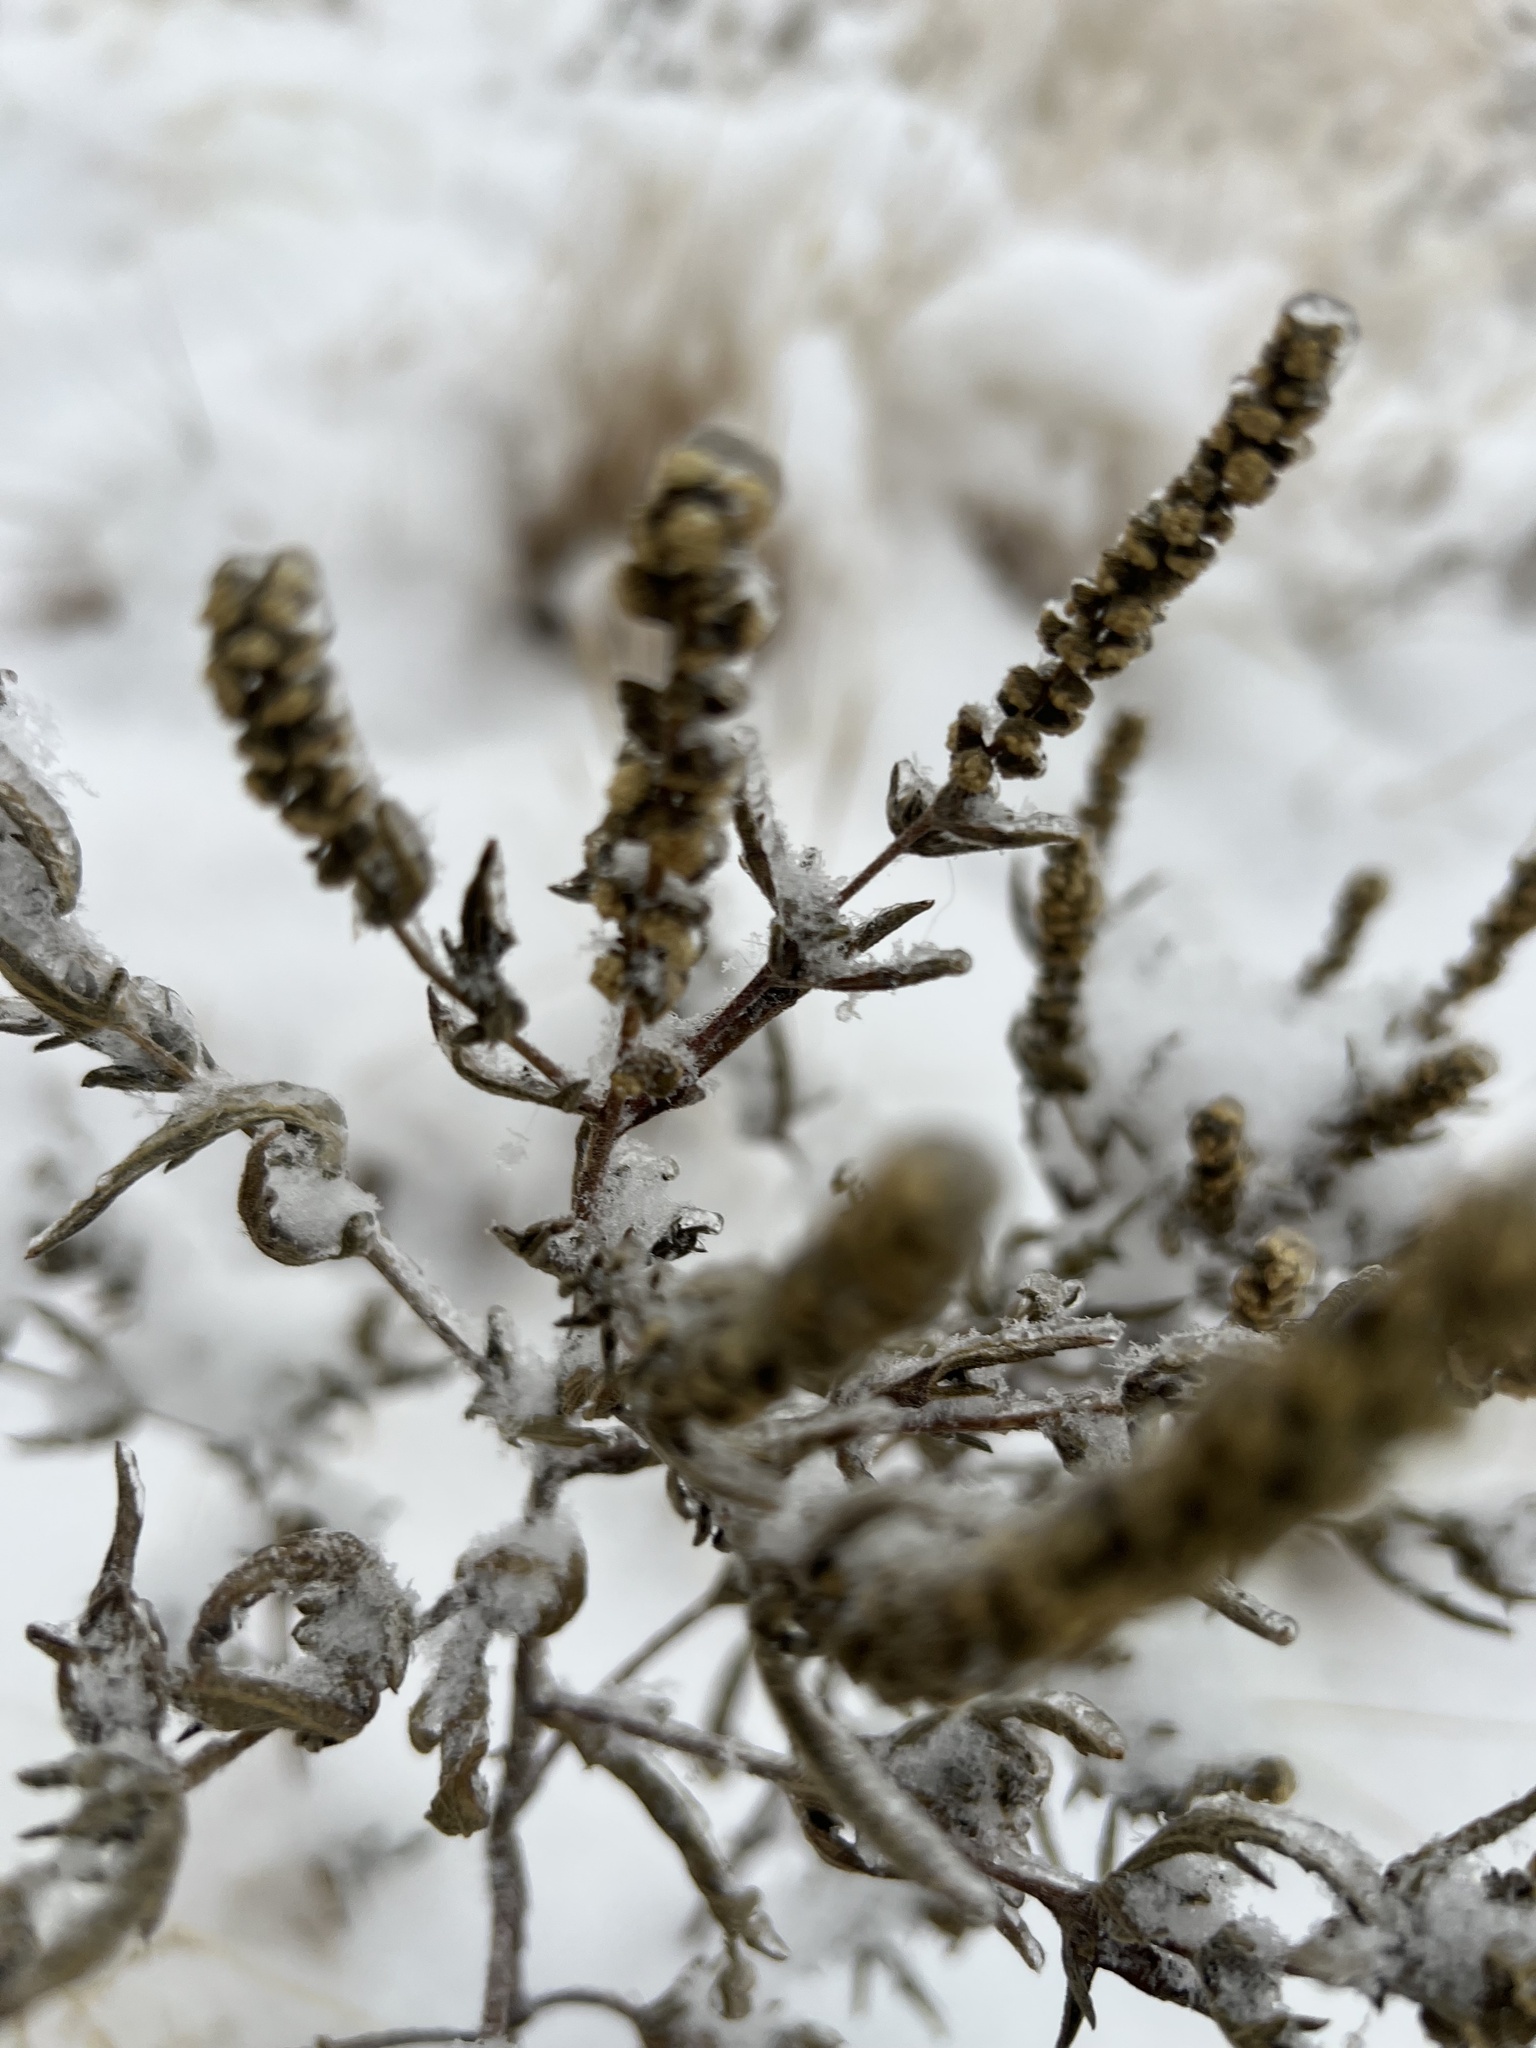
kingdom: Plantae
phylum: Tracheophyta
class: Magnoliopsida
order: Asterales
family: Asteraceae
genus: Ambrosia
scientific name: Ambrosia psilostachya
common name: Perennial ragweed
